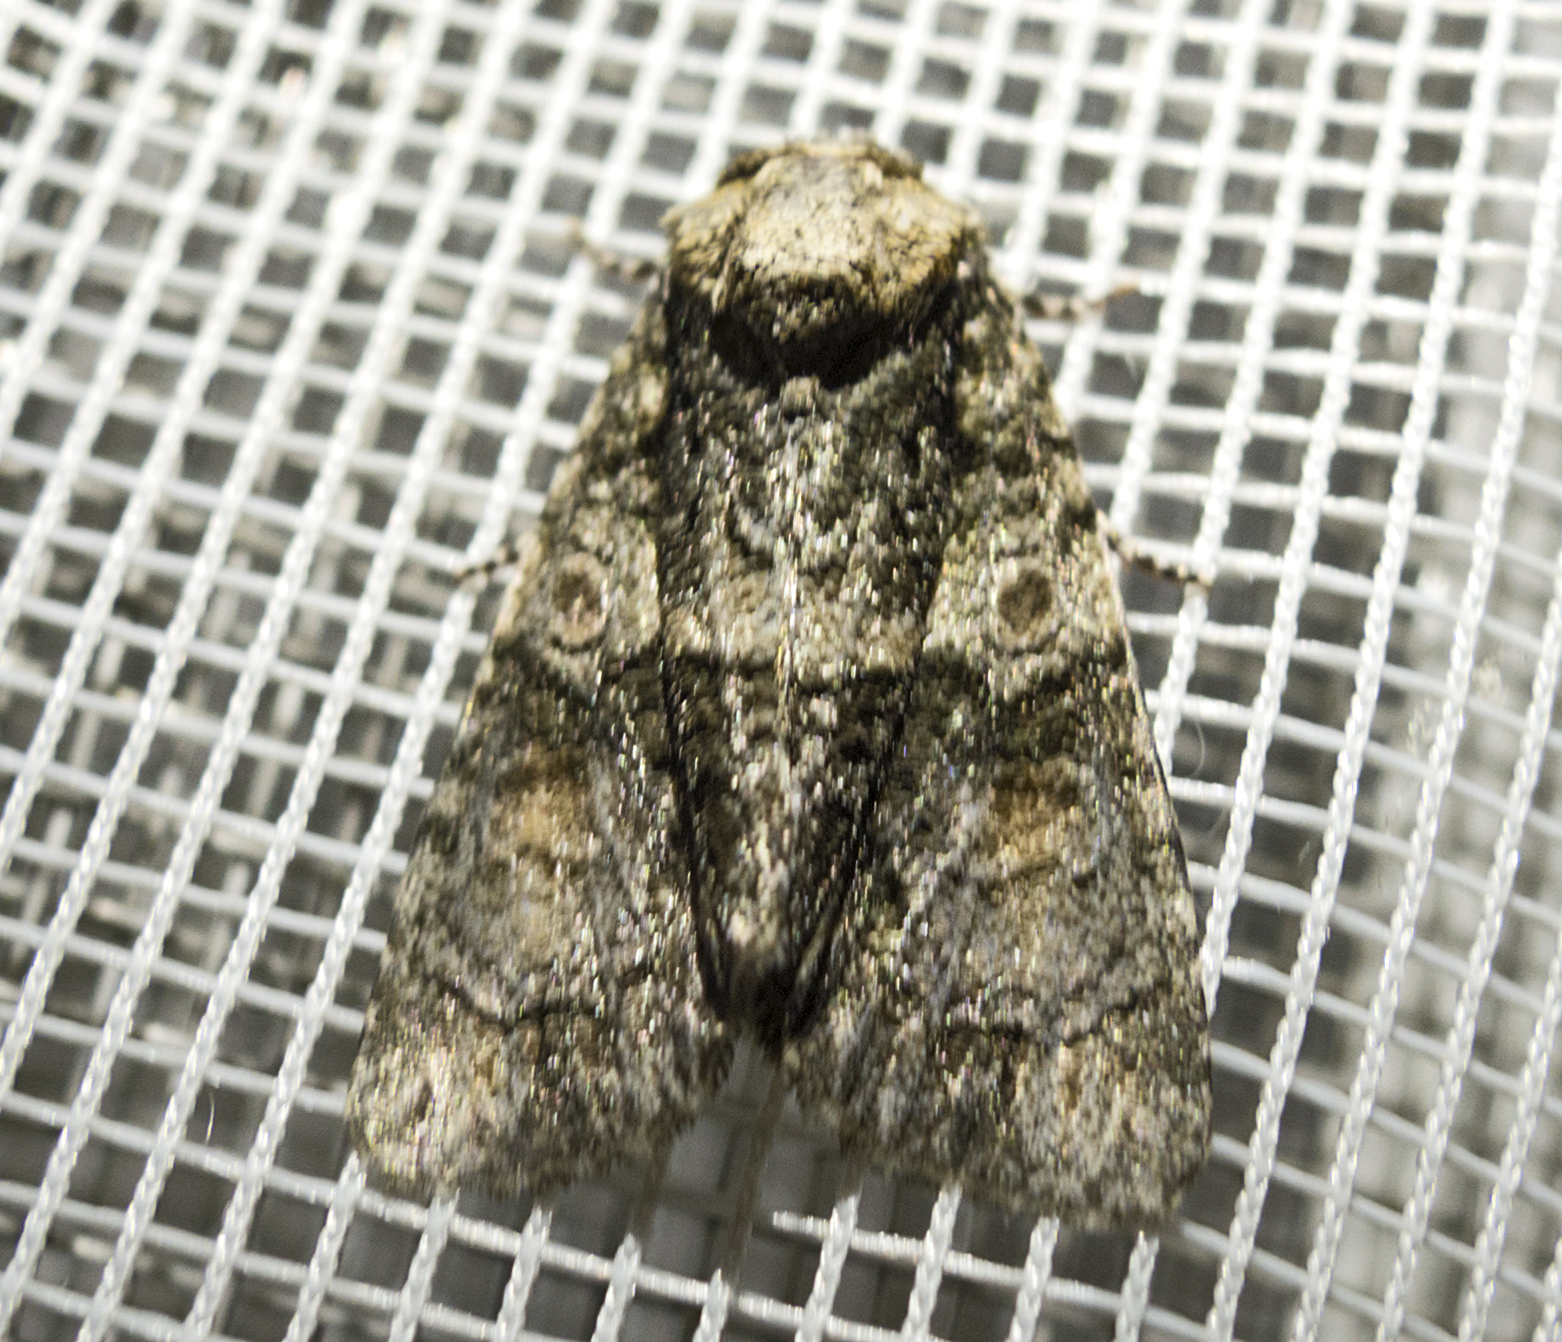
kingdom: Animalia
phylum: Arthropoda
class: Insecta
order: Lepidoptera
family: Noctuidae
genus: Craniophora
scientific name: Craniophora pontica
